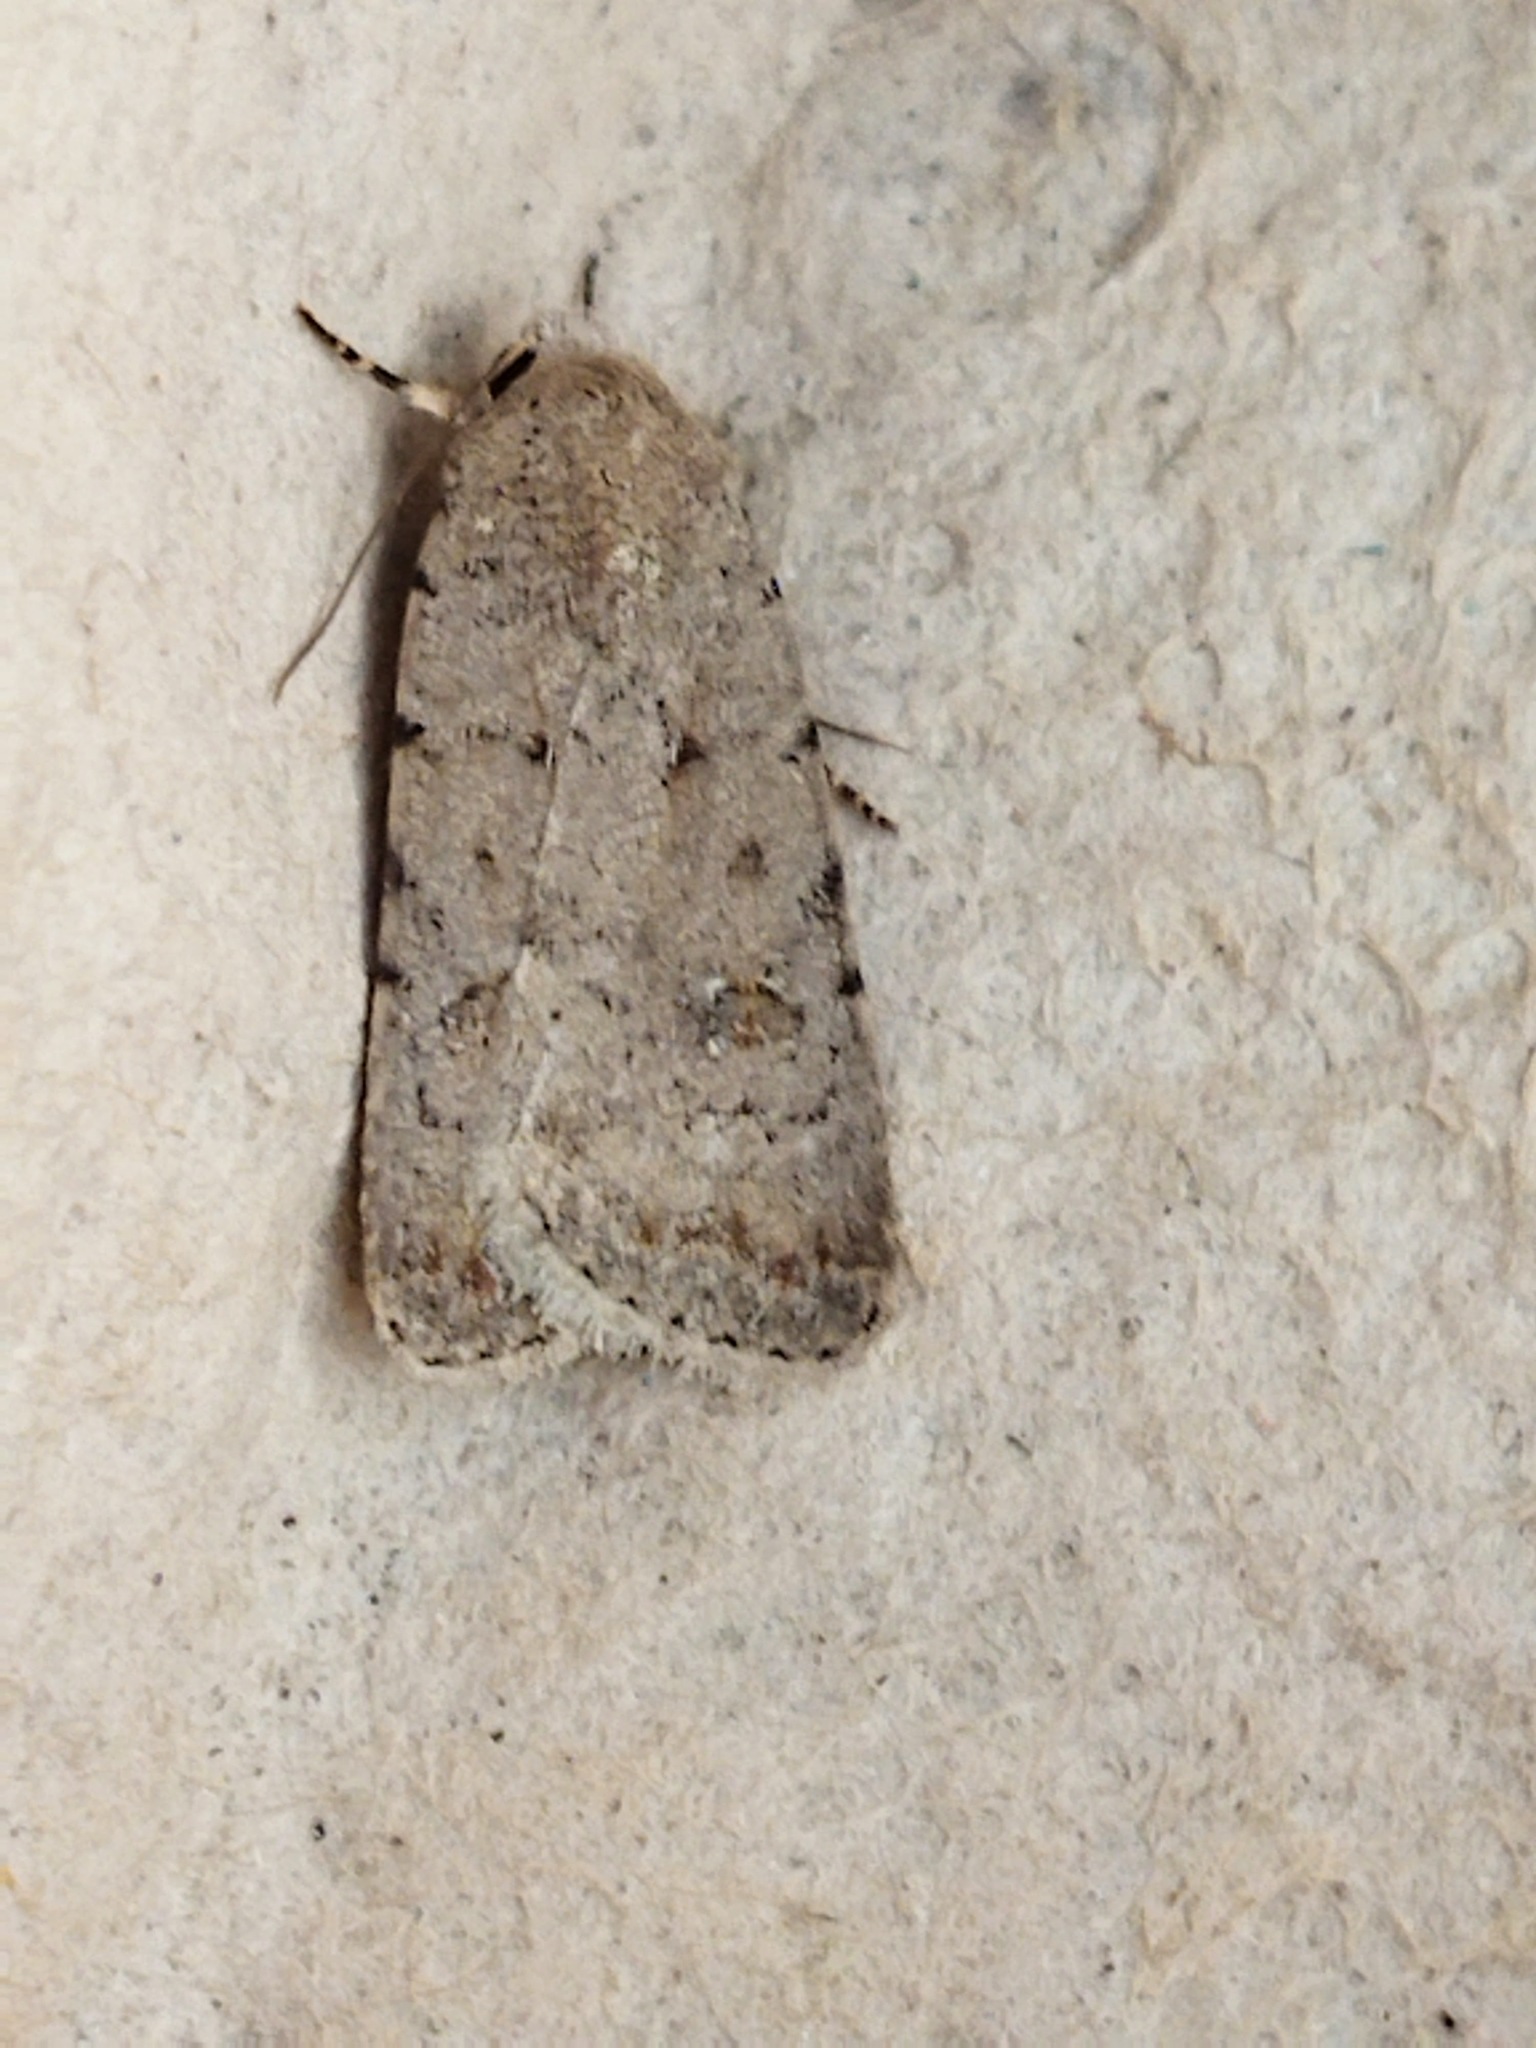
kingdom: Animalia
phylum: Arthropoda
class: Insecta
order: Lepidoptera
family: Noctuidae
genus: Caradrina
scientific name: Caradrina clavipalpis
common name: Pale mottled willow
